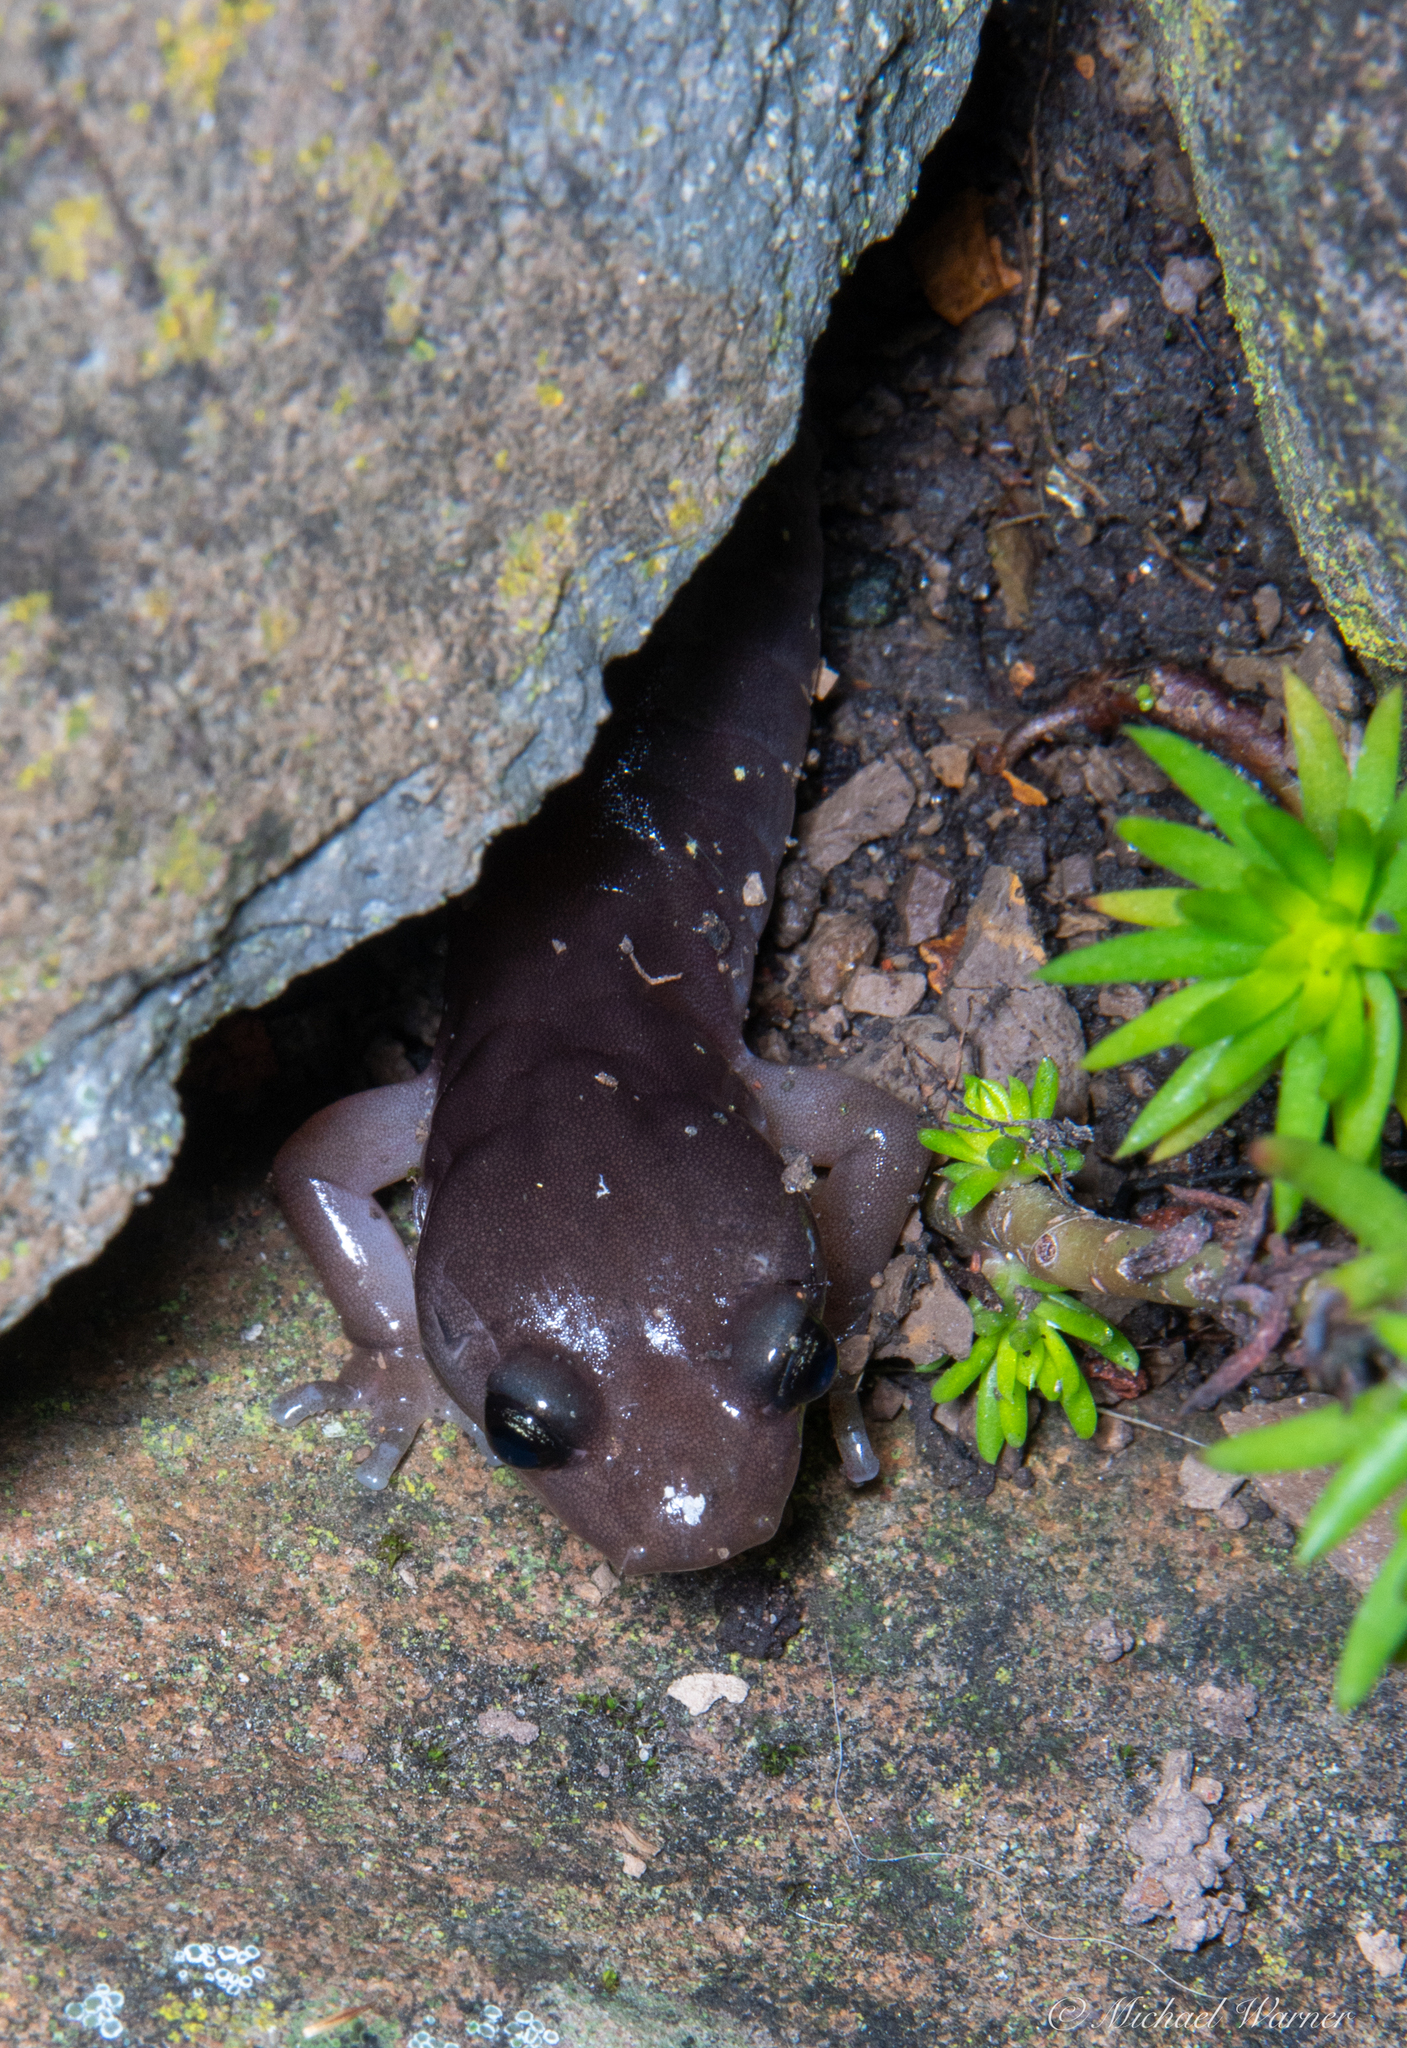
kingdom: Animalia
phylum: Chordata
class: Amphibia
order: Caudata
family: Plethodontidae
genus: Aneides
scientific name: Aneides lugubris
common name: Arboreal salamander
